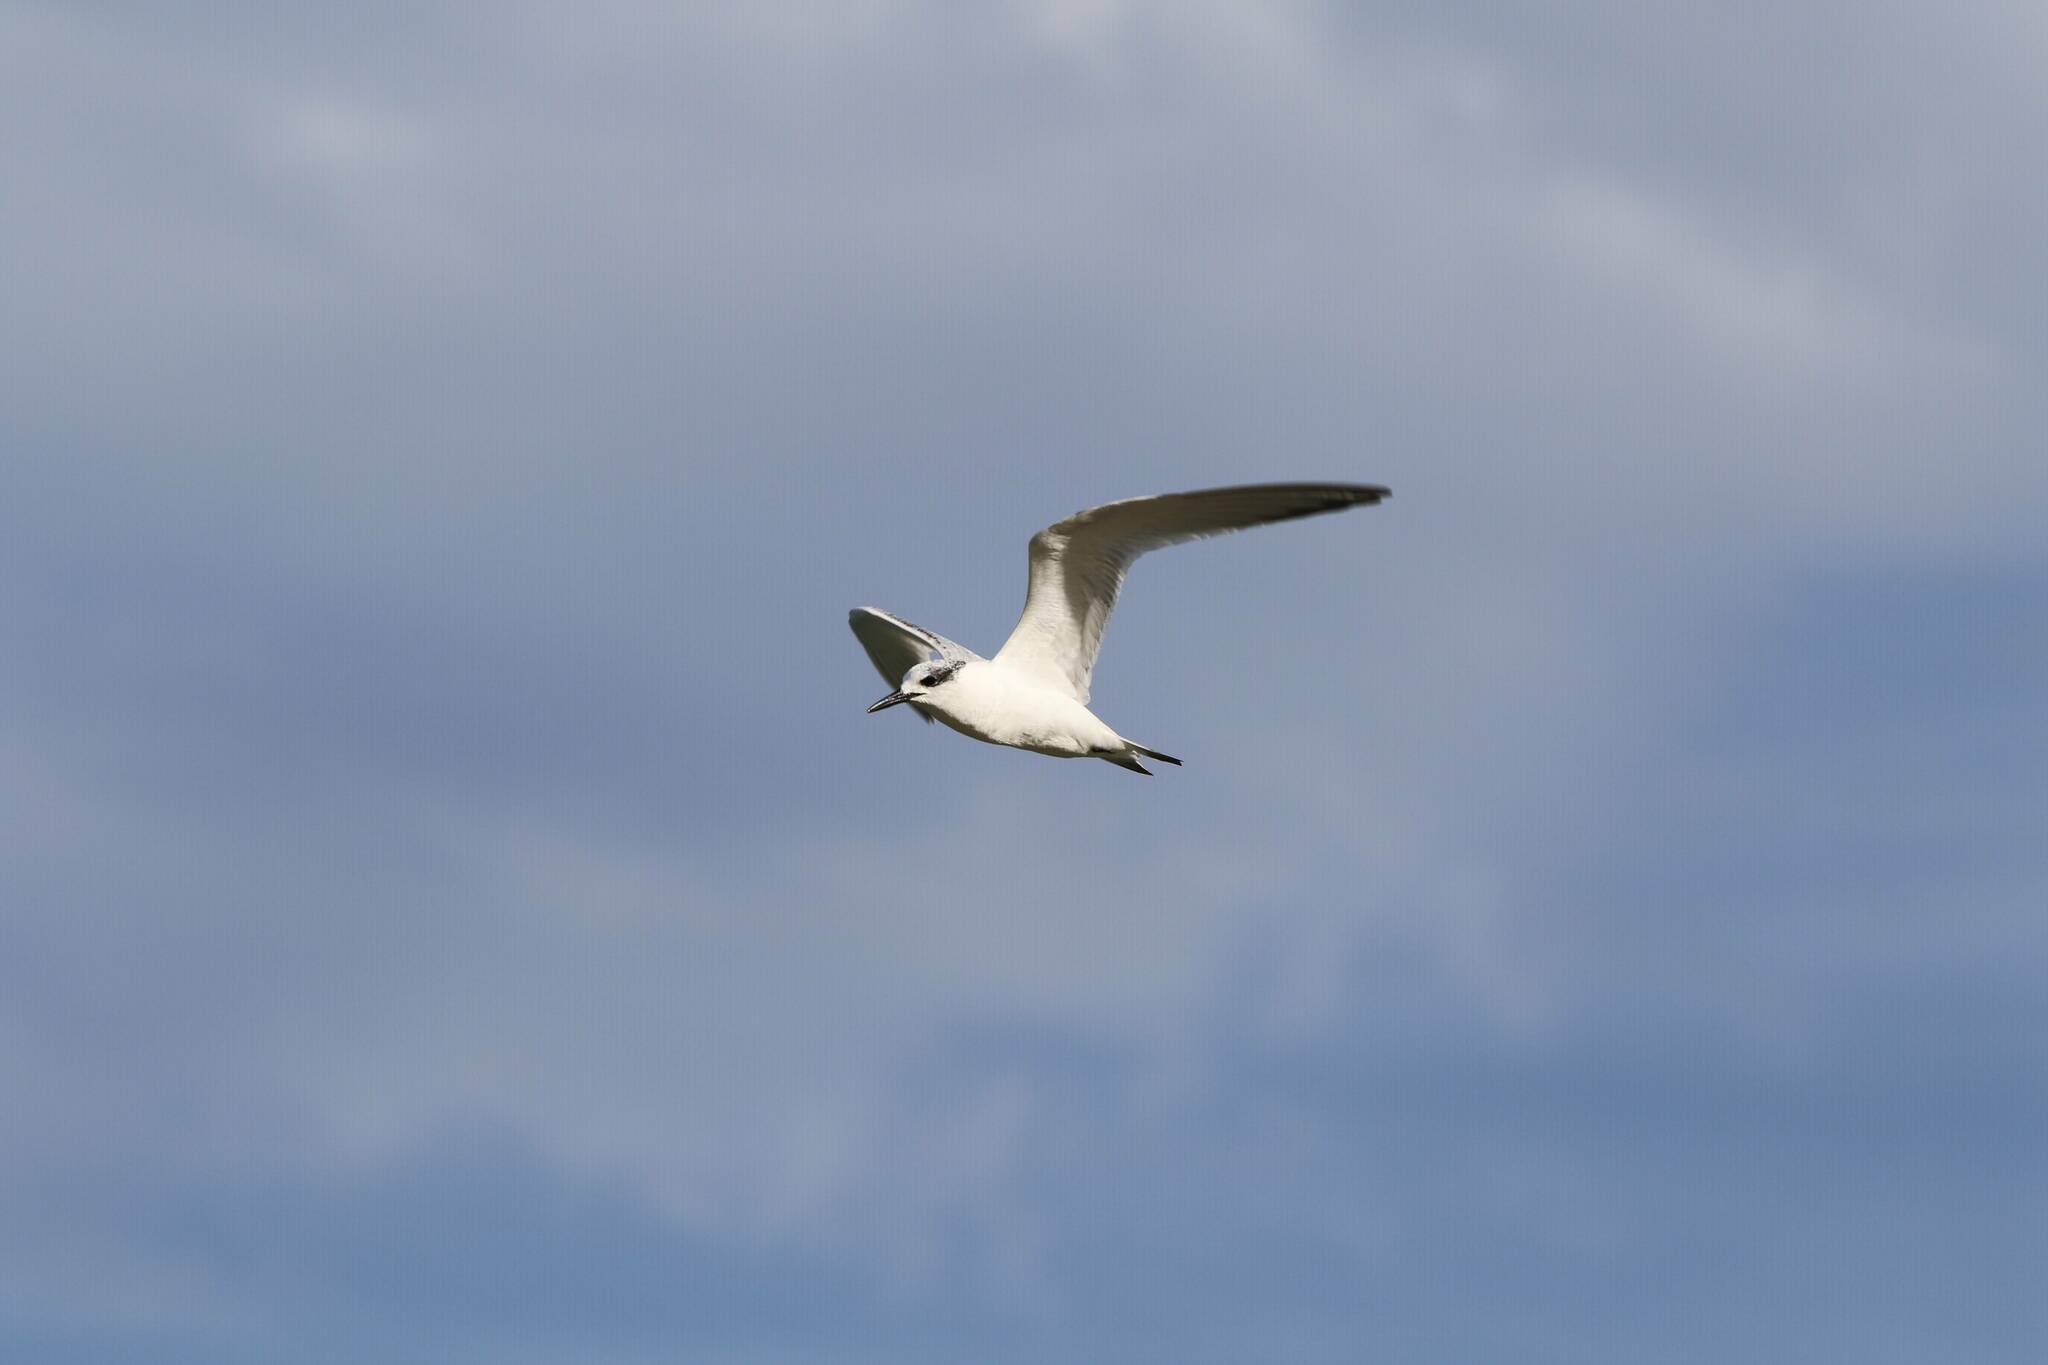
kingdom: Animalia
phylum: Chordata
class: Aves
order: Charadriiformes
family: Laridae
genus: Thalasseus
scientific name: Thalasseus sandvicensis
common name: Sandwich tern
